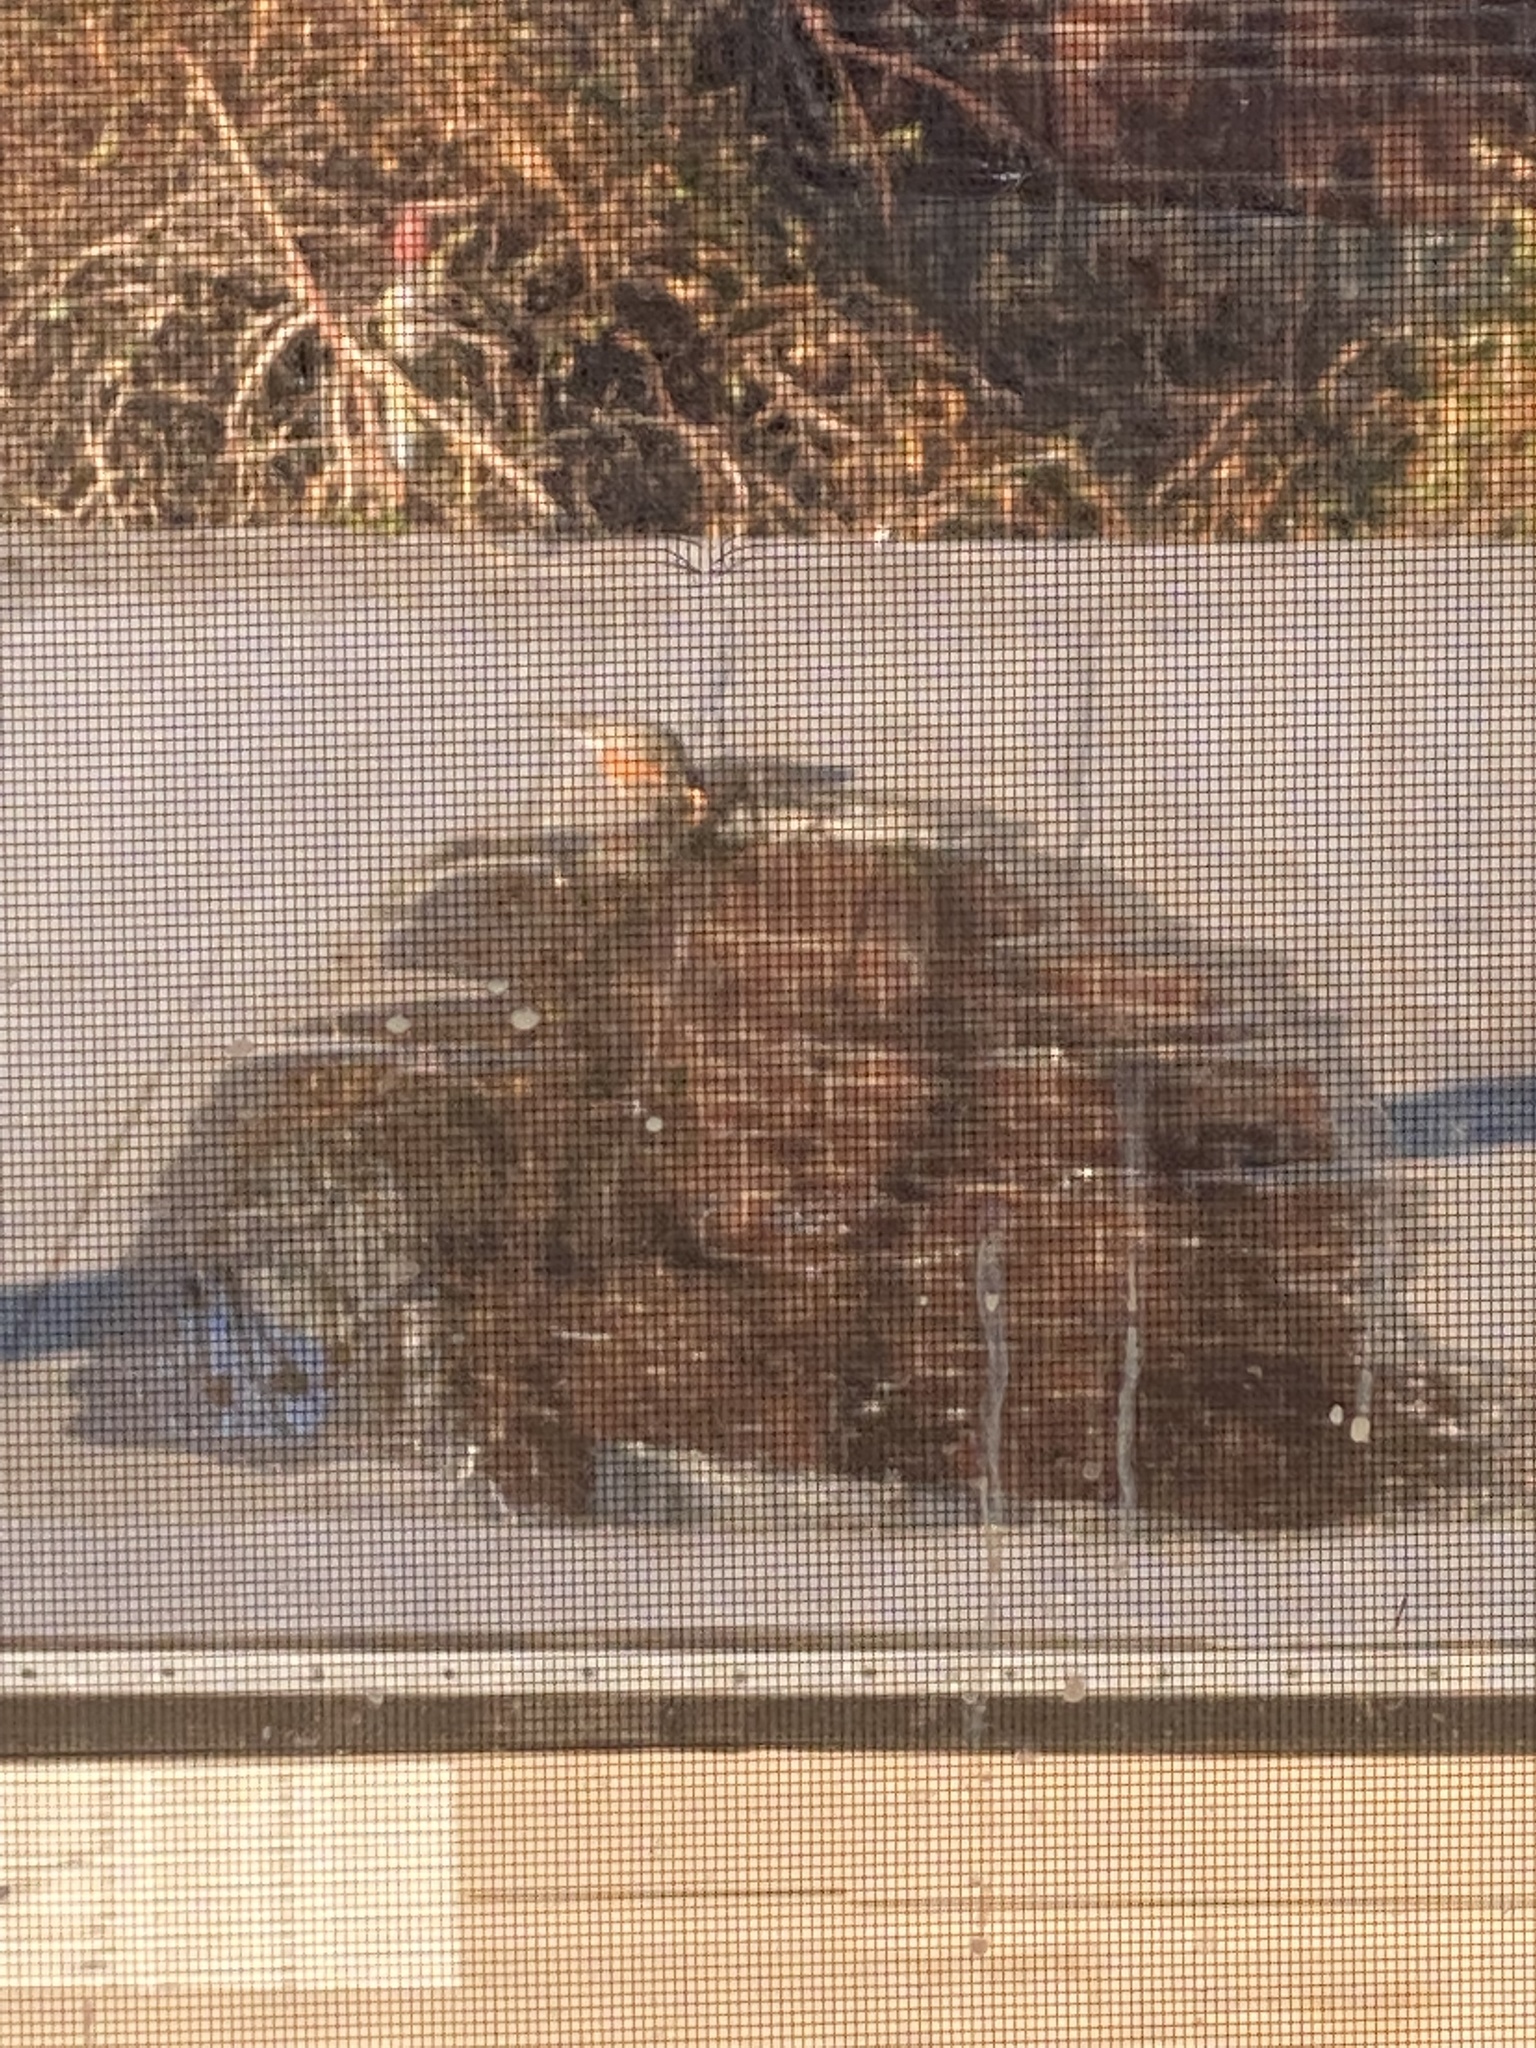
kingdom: Animalia
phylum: Chordata
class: Aves
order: Passeriformes
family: Turdidae
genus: Turdus
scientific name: Turdus migratorius
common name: American robin
